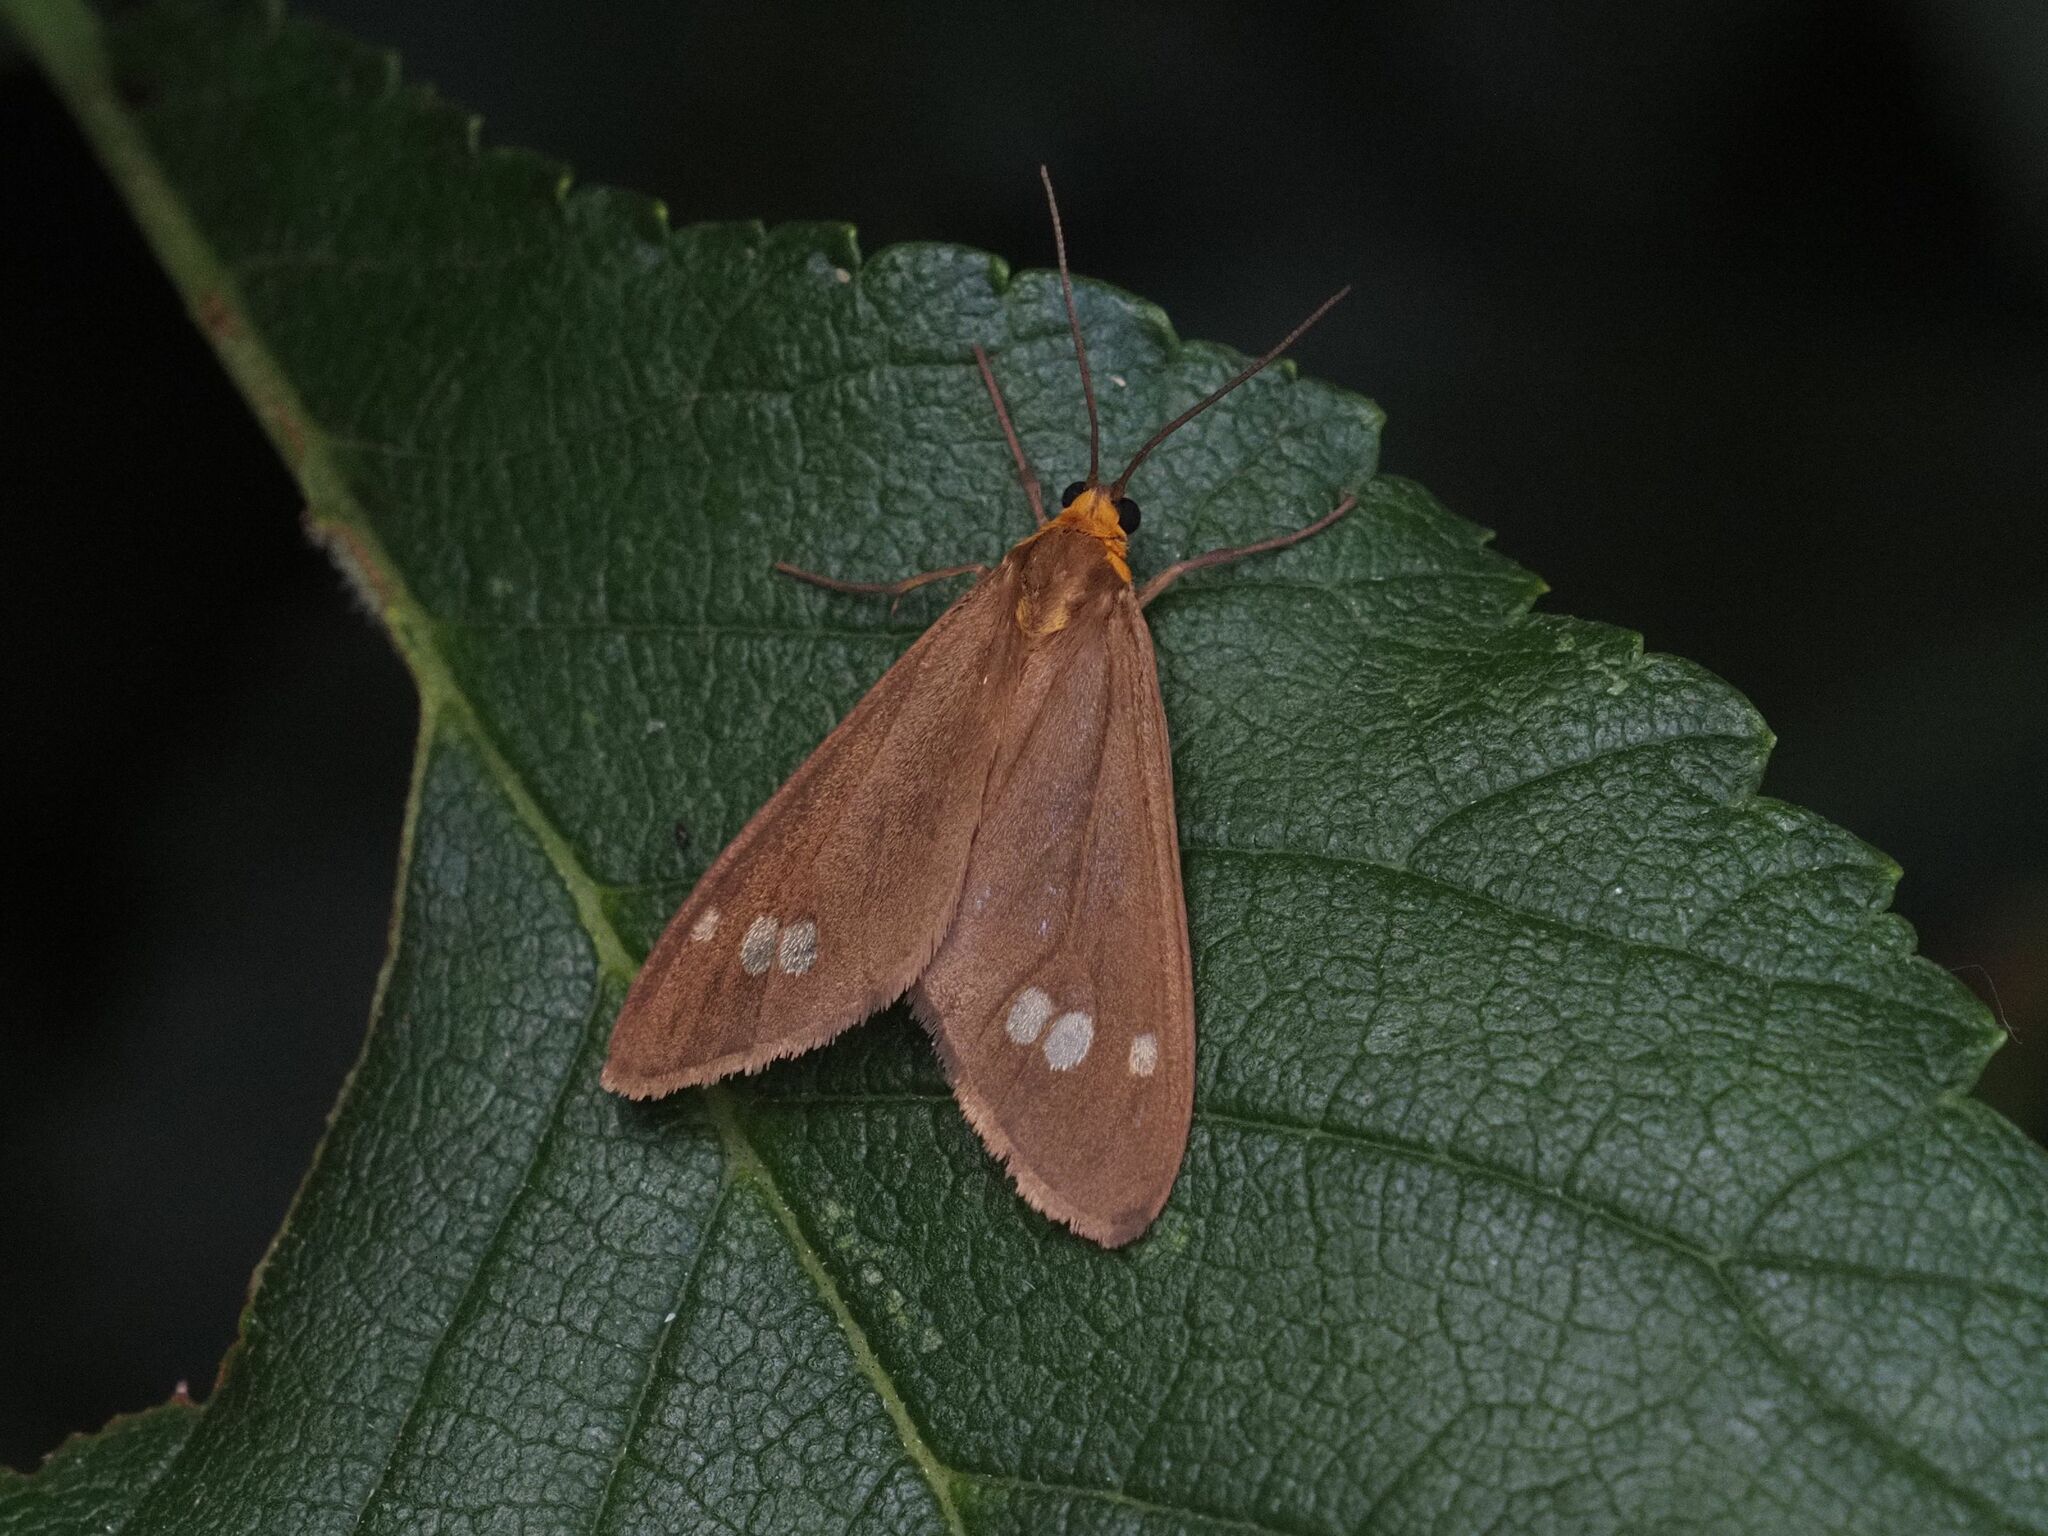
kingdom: Animalia
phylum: Arthropoda
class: Insecta
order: Lepidoptera
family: Erebidae
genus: Dysauxes
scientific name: Dysauxes ancilla
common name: The handmaid
